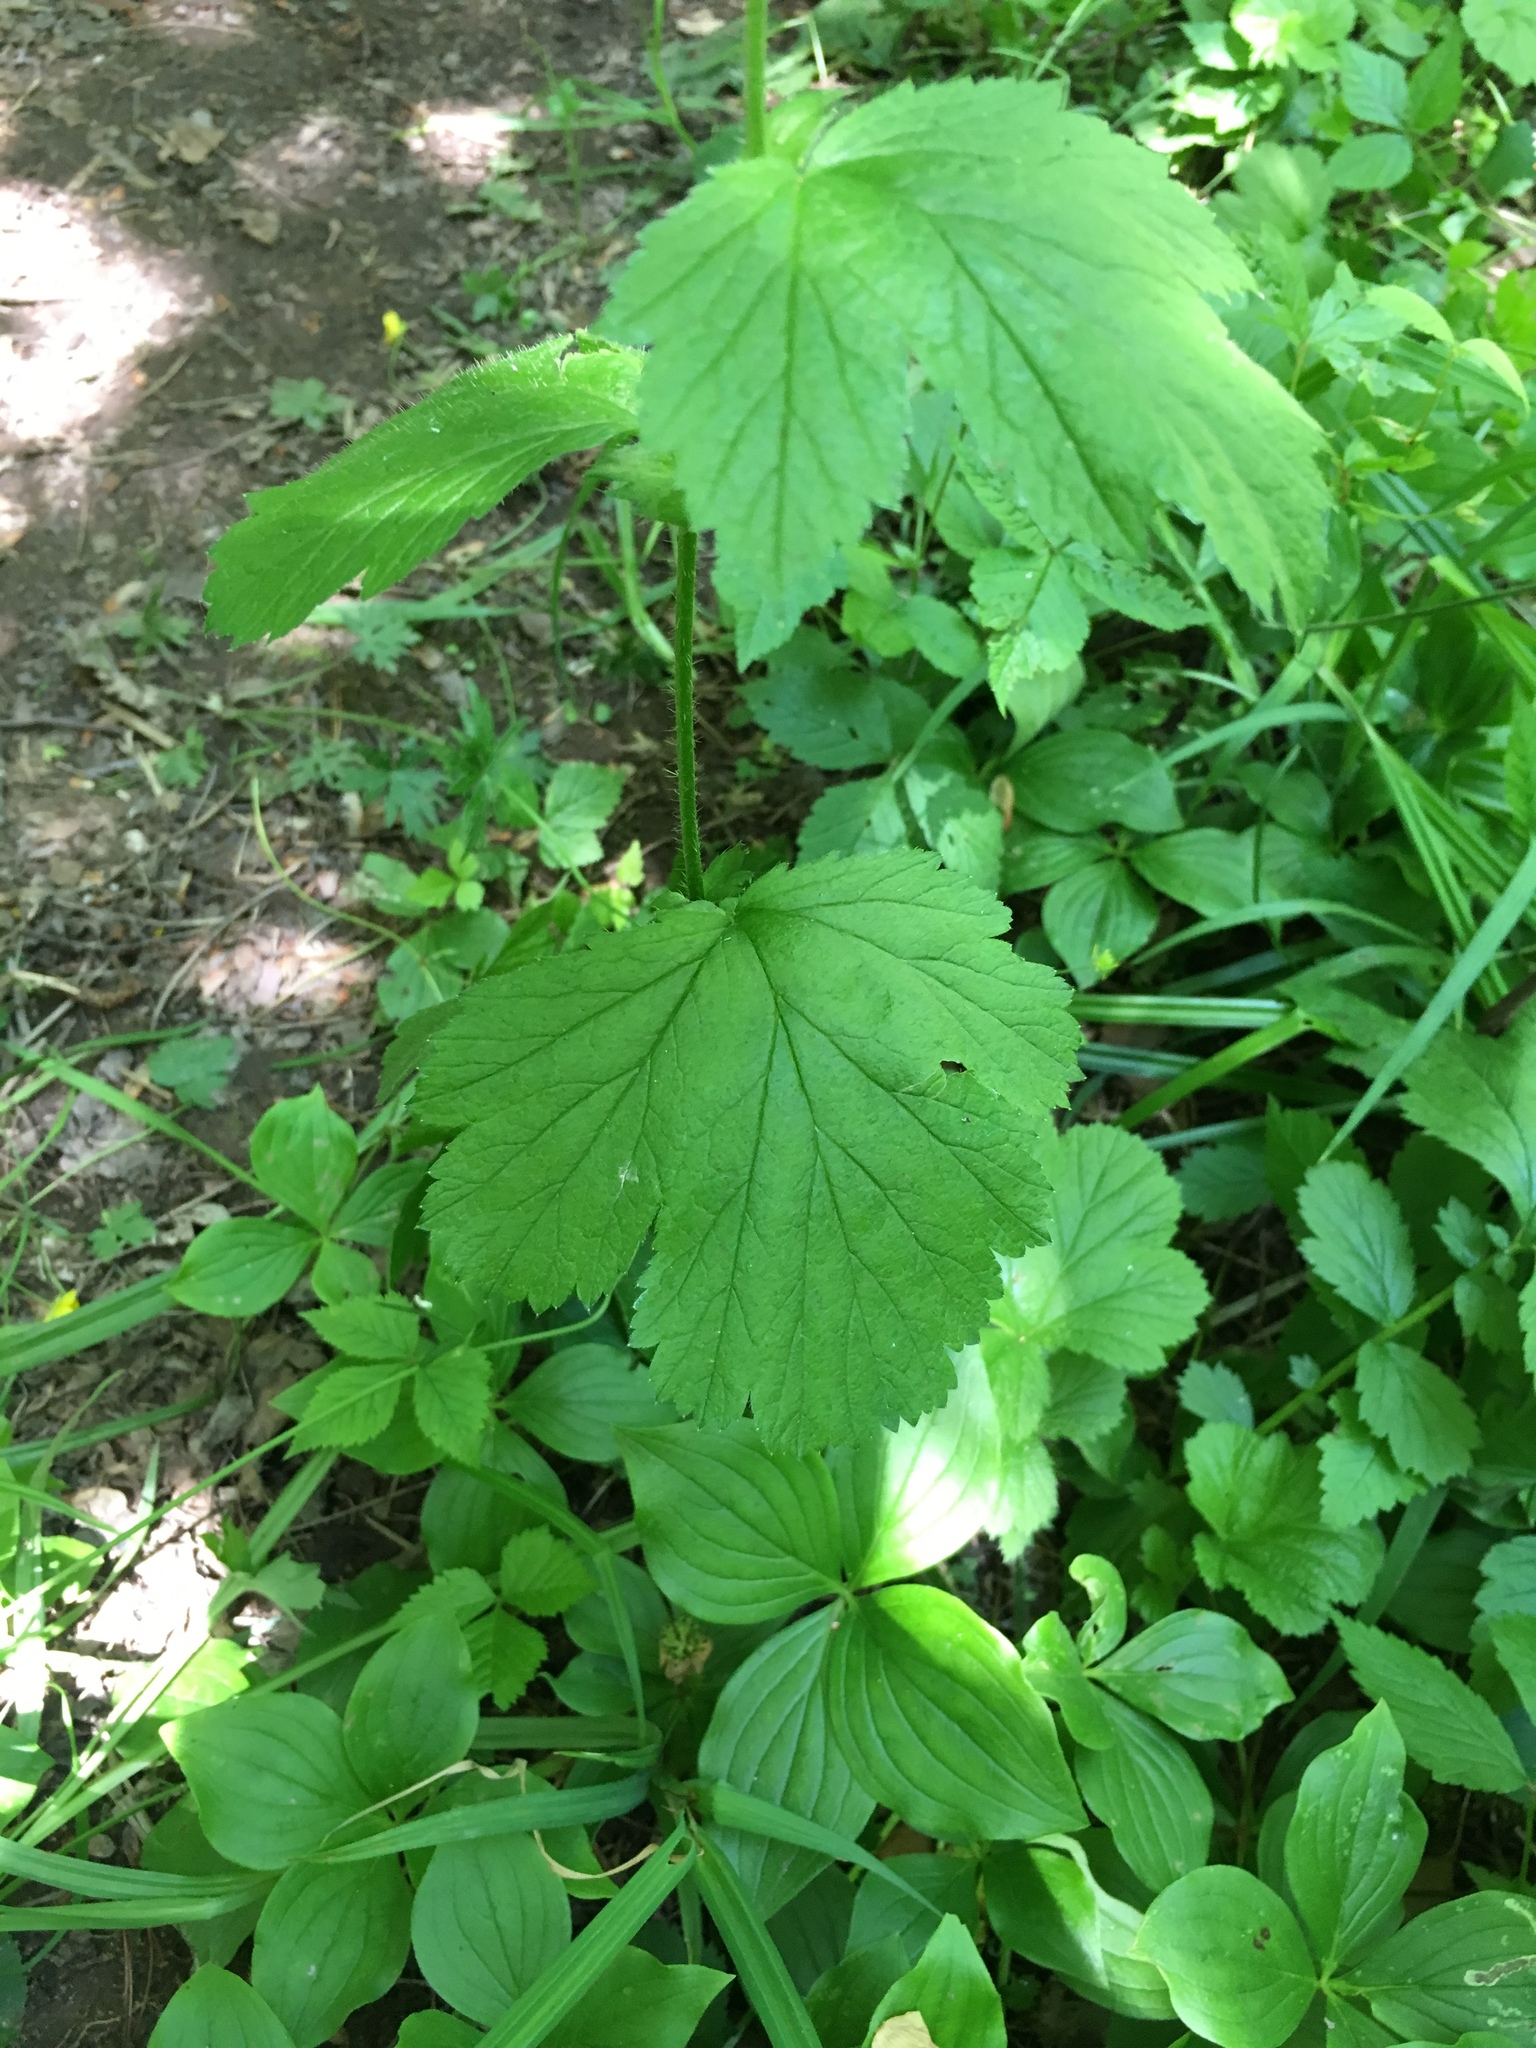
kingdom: Plantae
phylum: Tracheophyta
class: Magnoliopsida
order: Rosales
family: Rosaceae
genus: Geum
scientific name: Geum macrophyllum
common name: Large-leaved avens
